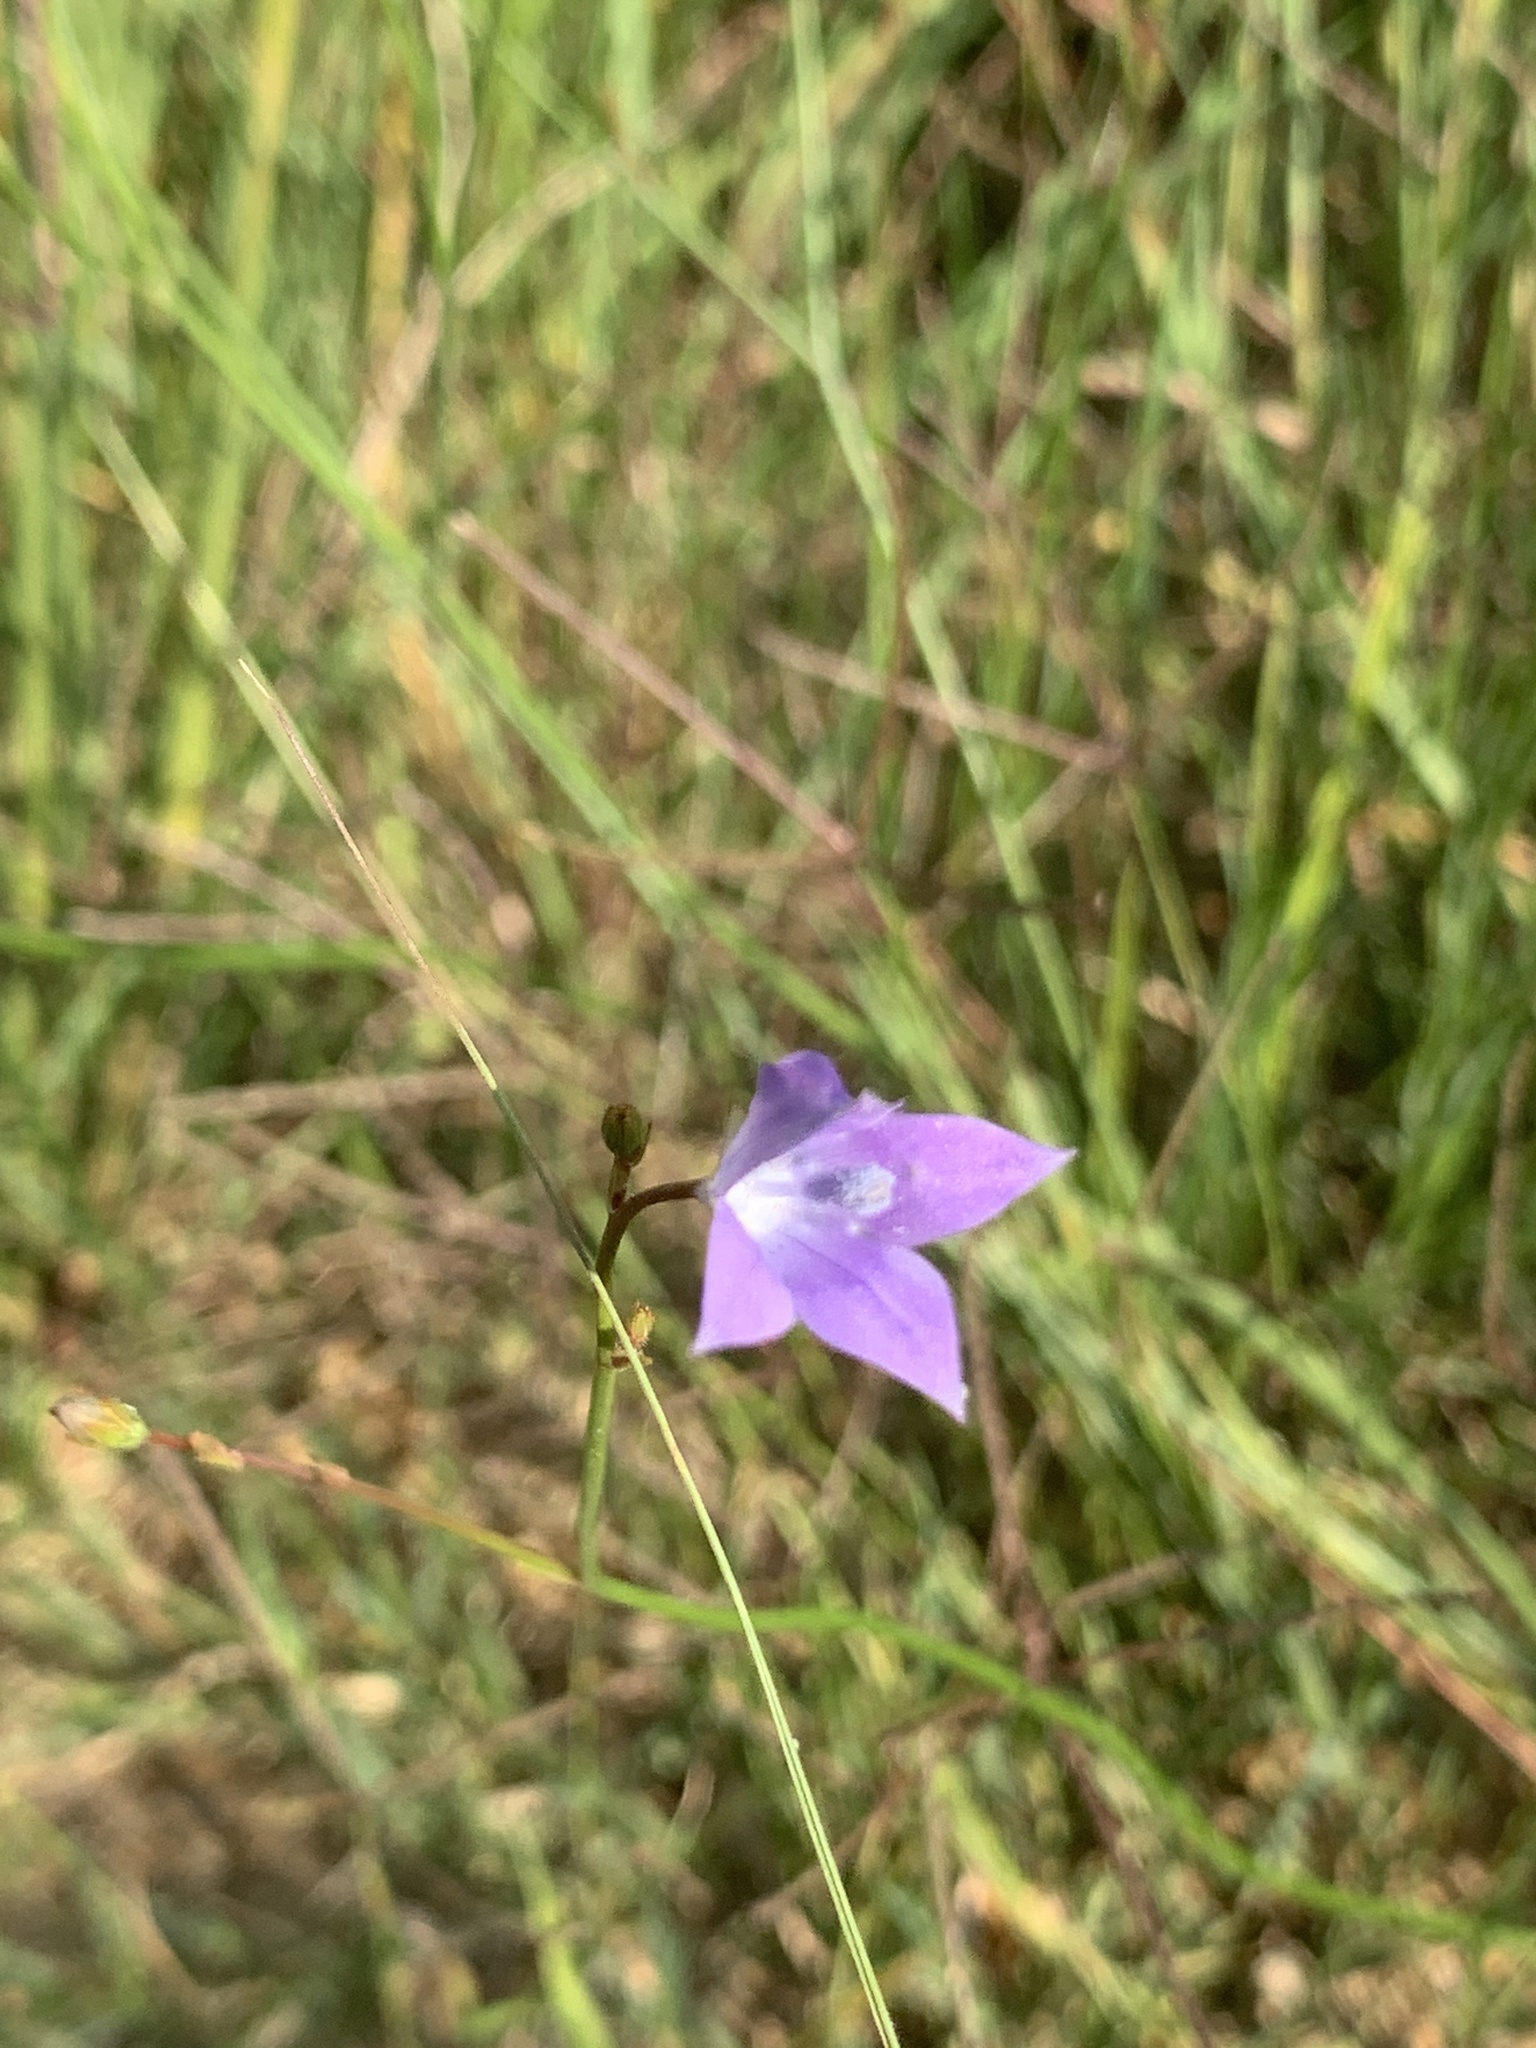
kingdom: Plantae
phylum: Tracheophyta
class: Magnoliopsida
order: Asterales
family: Campanulaceae
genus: Wahlenbergia
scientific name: Wahlenbergia undulata
